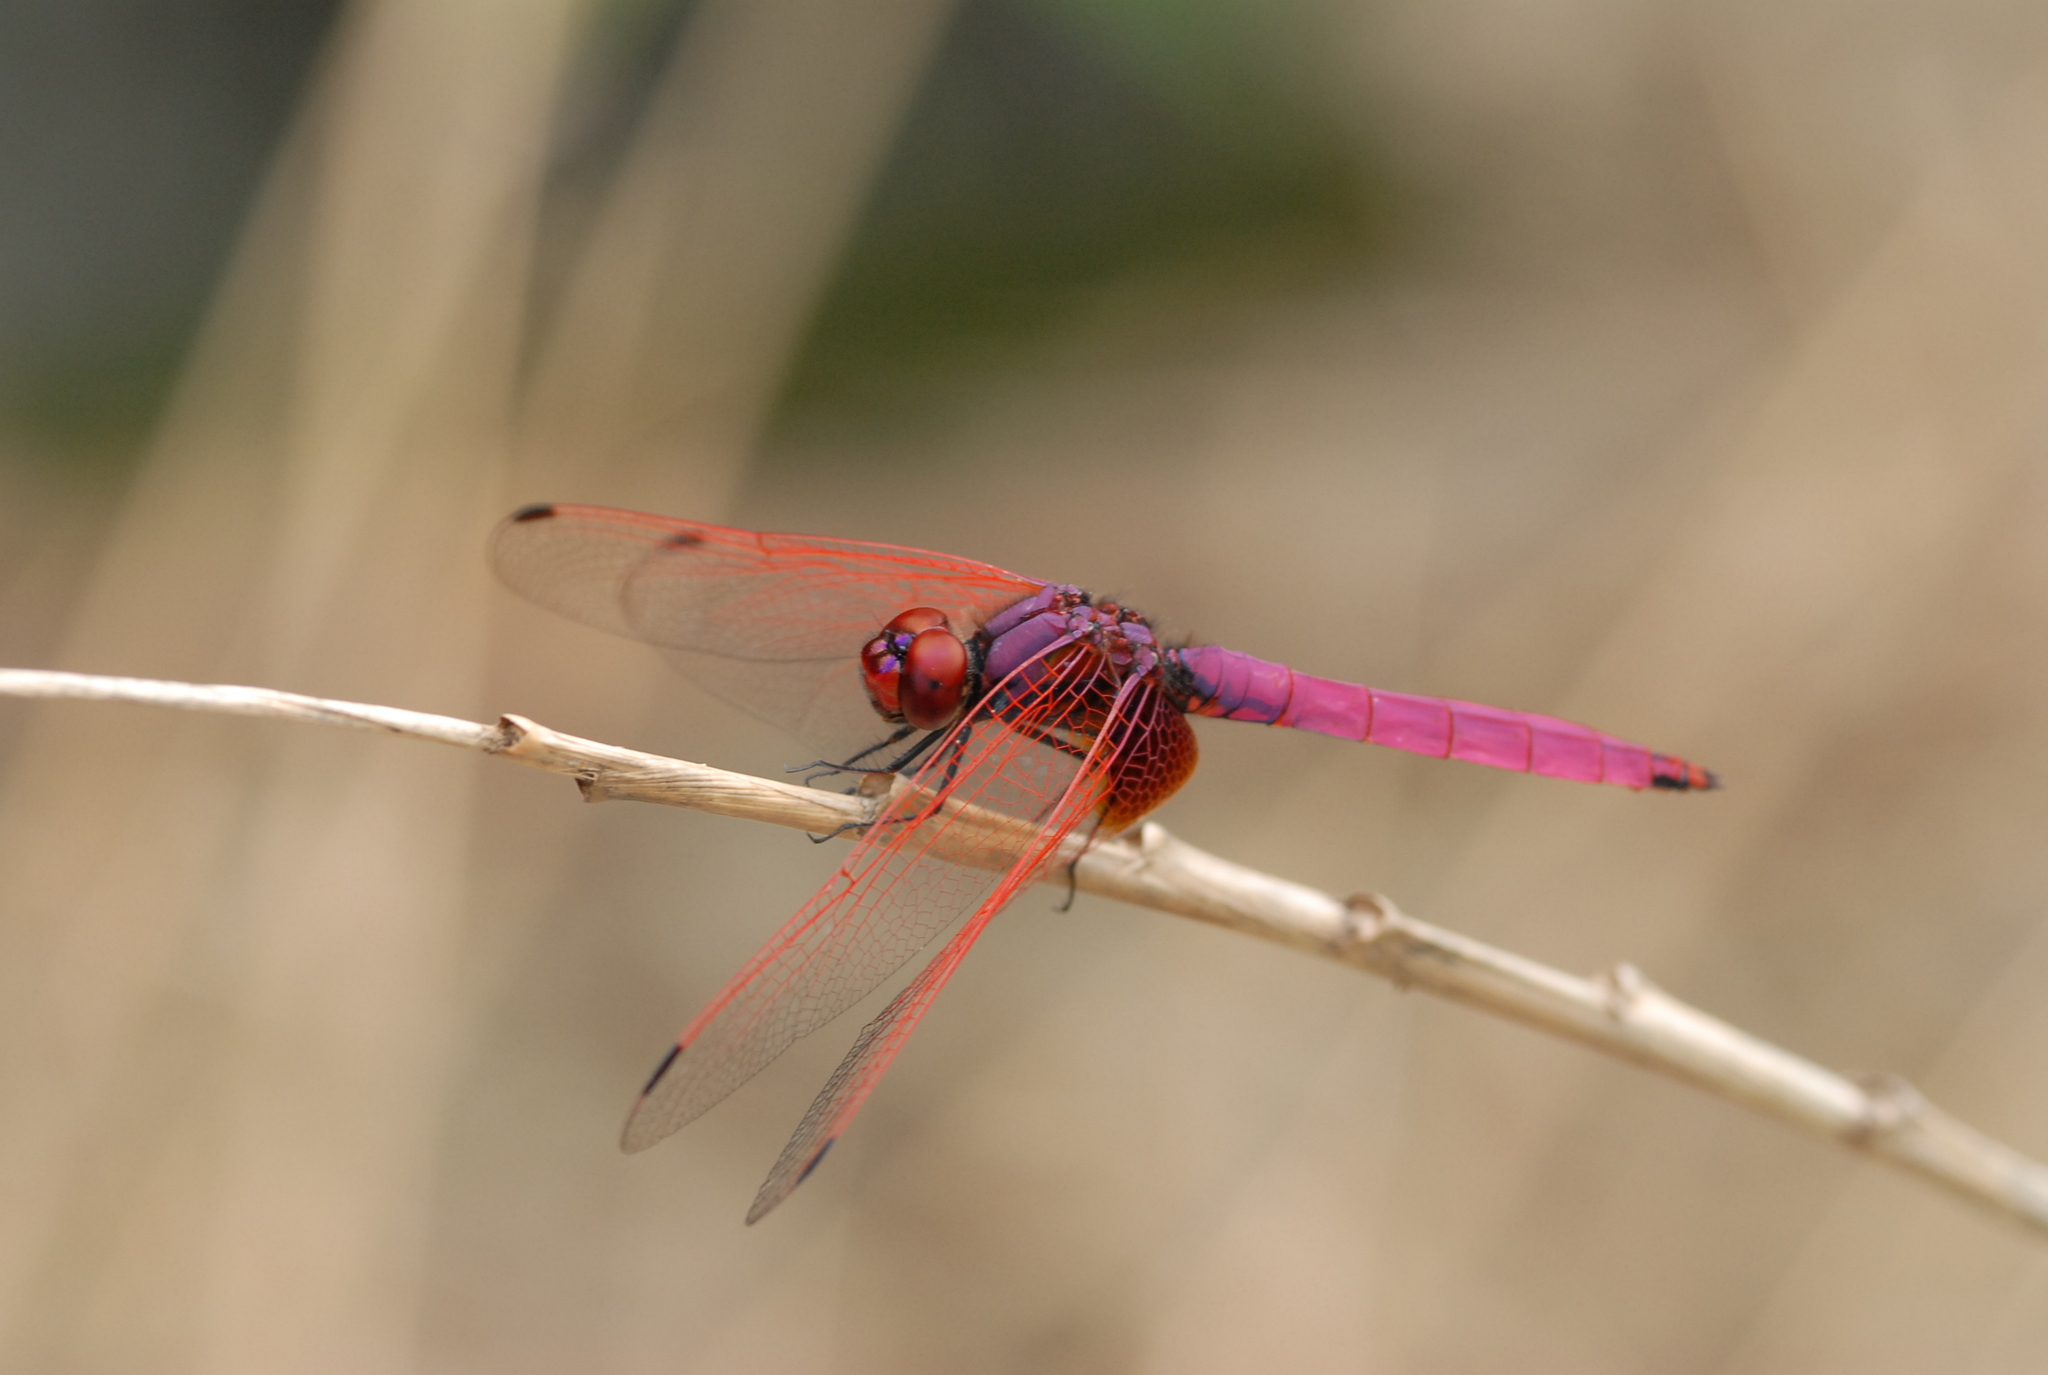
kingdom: Animalia
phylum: Arthropoda
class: Insecta
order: Odonata
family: Libellulidae
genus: Trithemis
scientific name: Trithemis aurora
